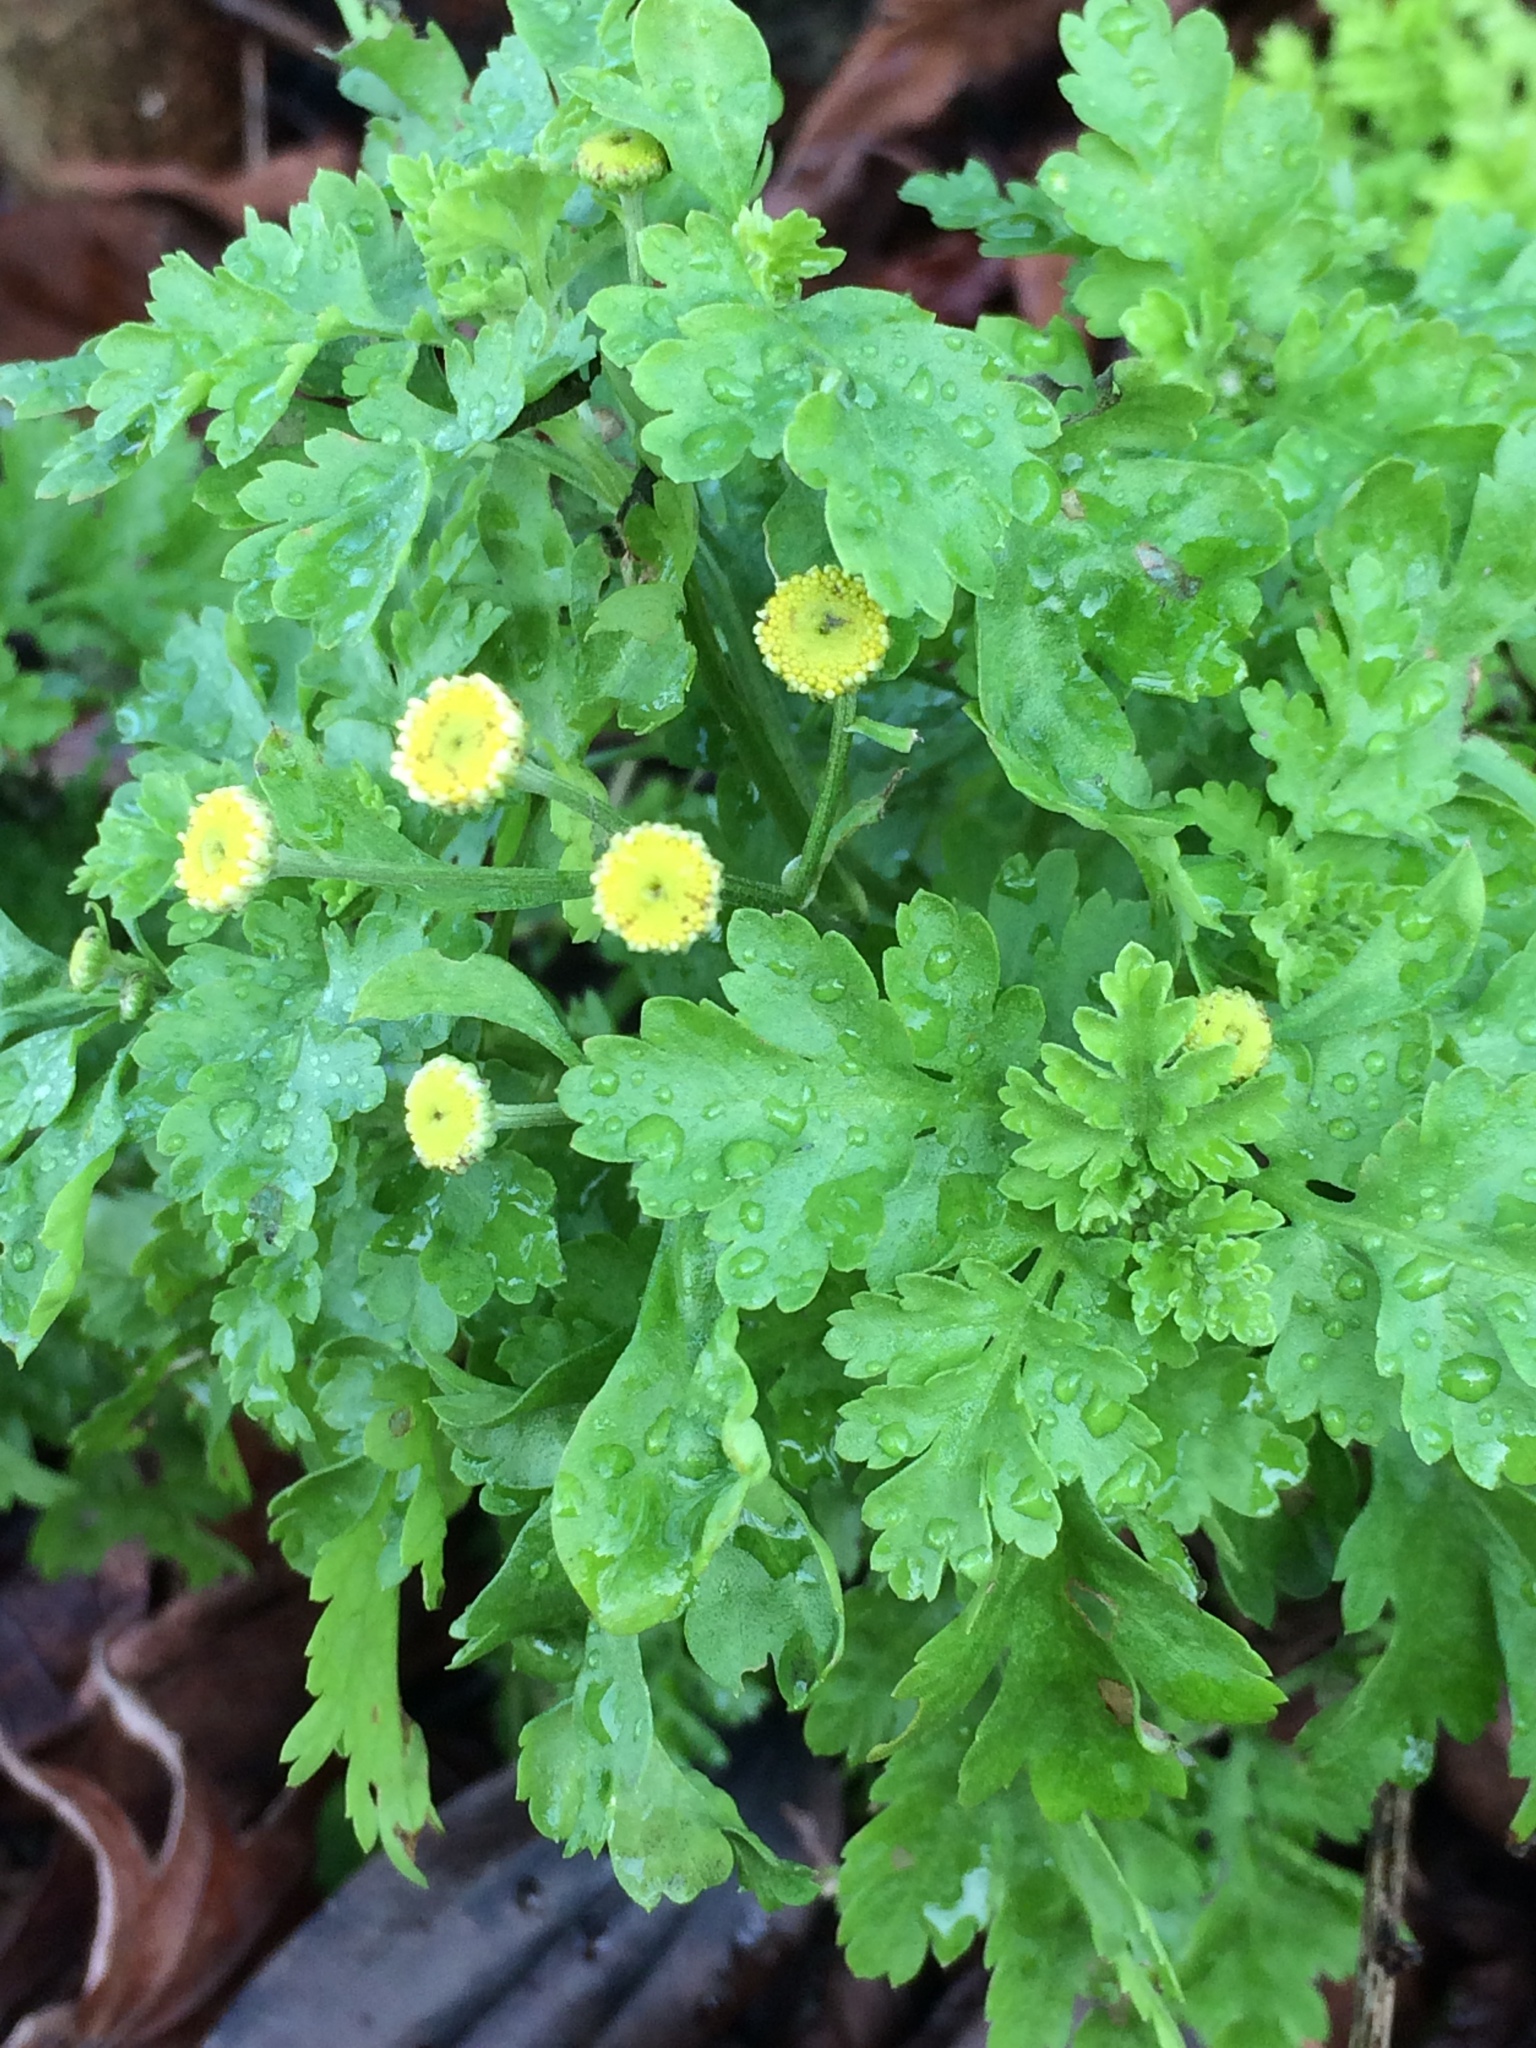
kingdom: Plantae
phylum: Tracheophyta
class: Magnoliopsida
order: Asterales
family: Asteraceae
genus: Tanacetum
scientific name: Tanacetum parthenium
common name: Feverfew
